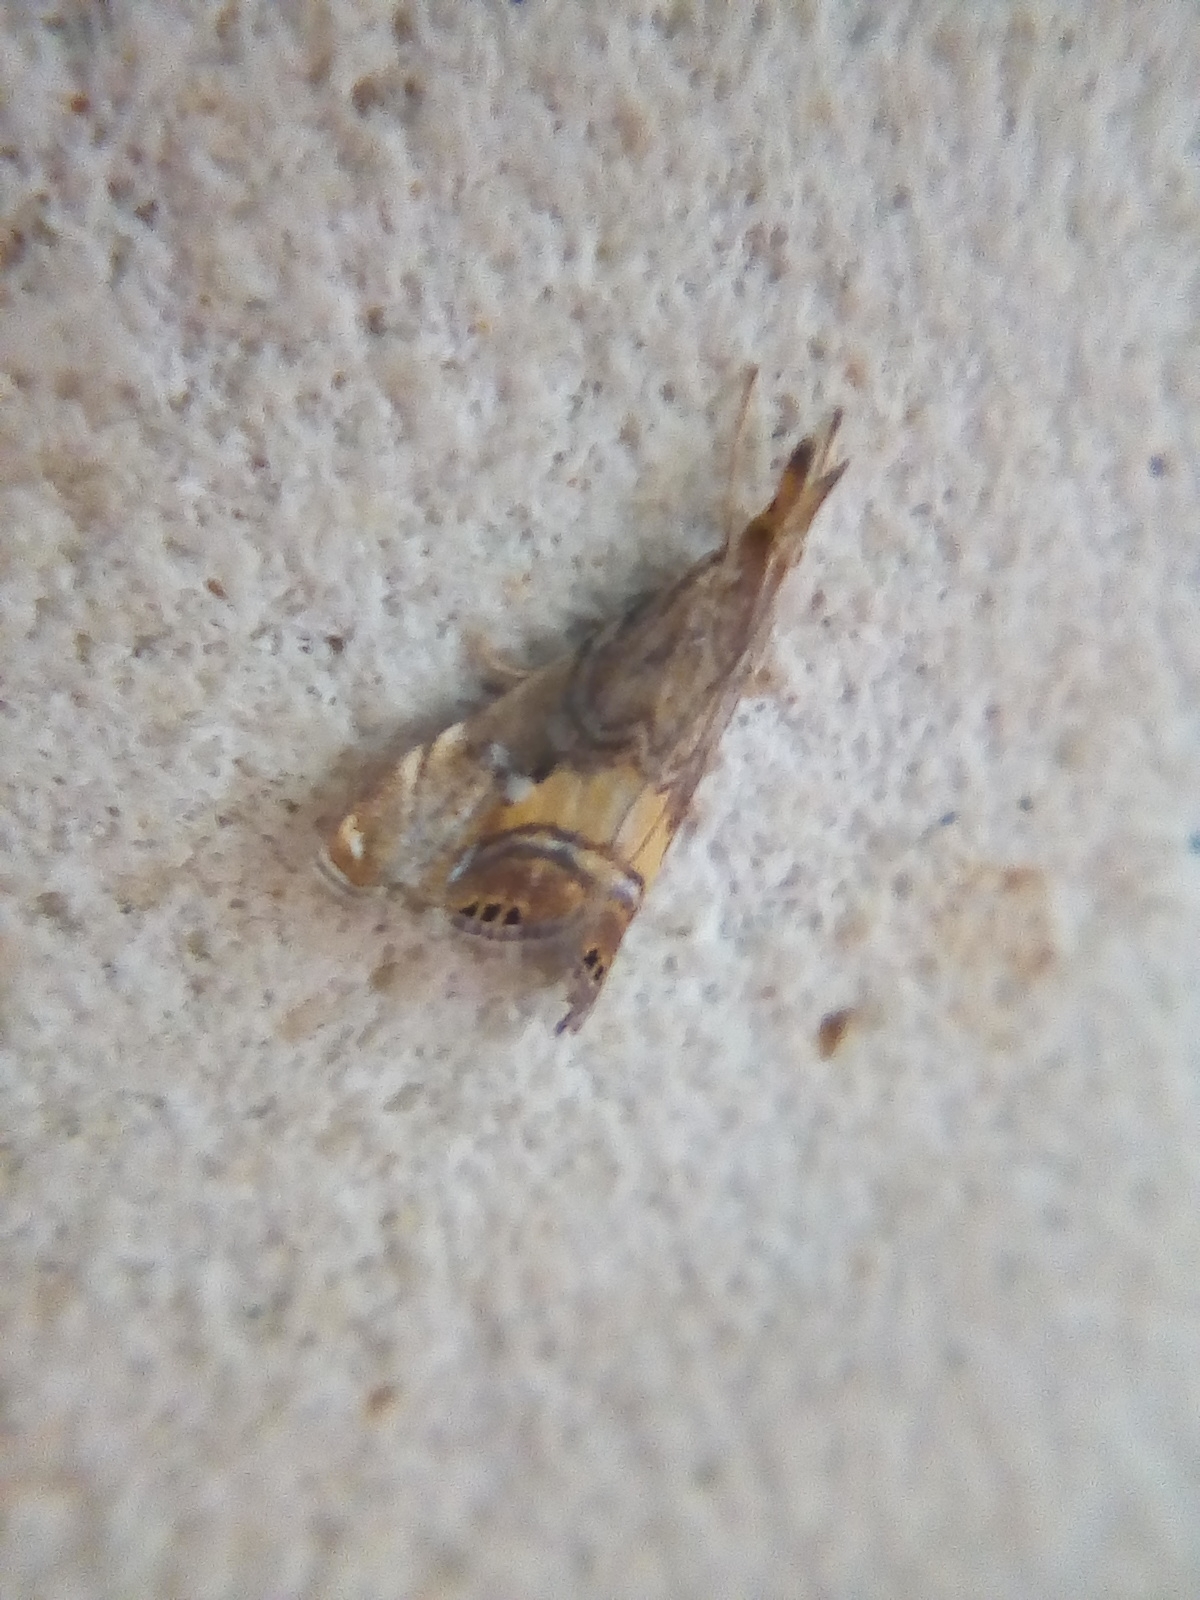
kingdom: Animalia
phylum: Arthropoda
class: Insecta
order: Lepidoptera
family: Crambidae
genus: Glaucocharis
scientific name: Glaucocharis chrysochyta
